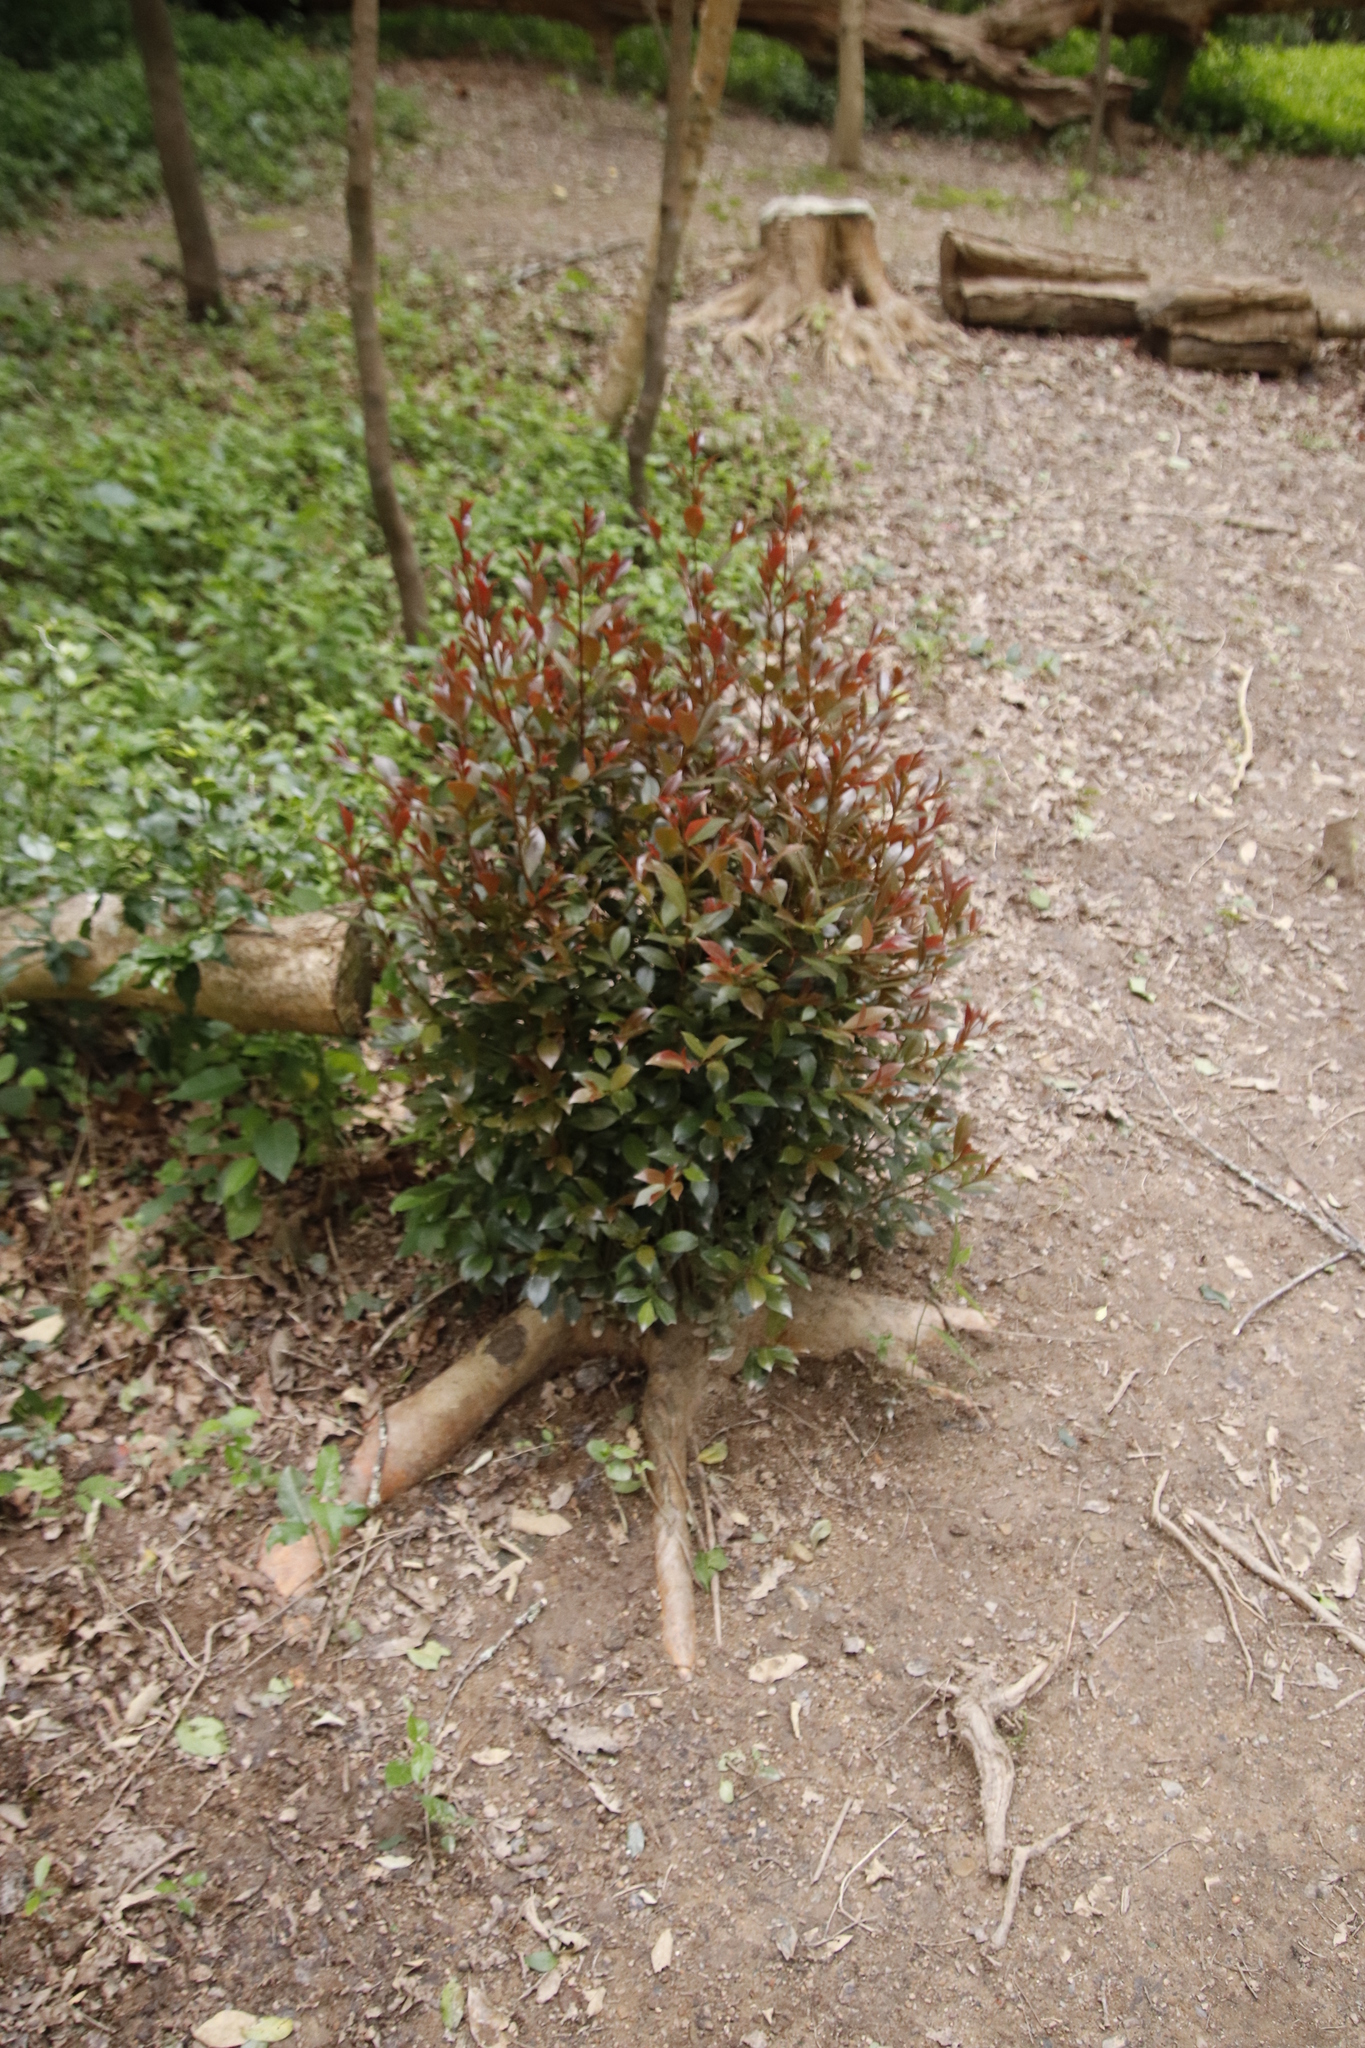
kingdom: Plantae
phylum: Tracheophyta
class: Magnoliopsida
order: Myrtales
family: Myrtaceae
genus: Syzygium
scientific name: Syzygium australe
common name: Australian brush-cherry
